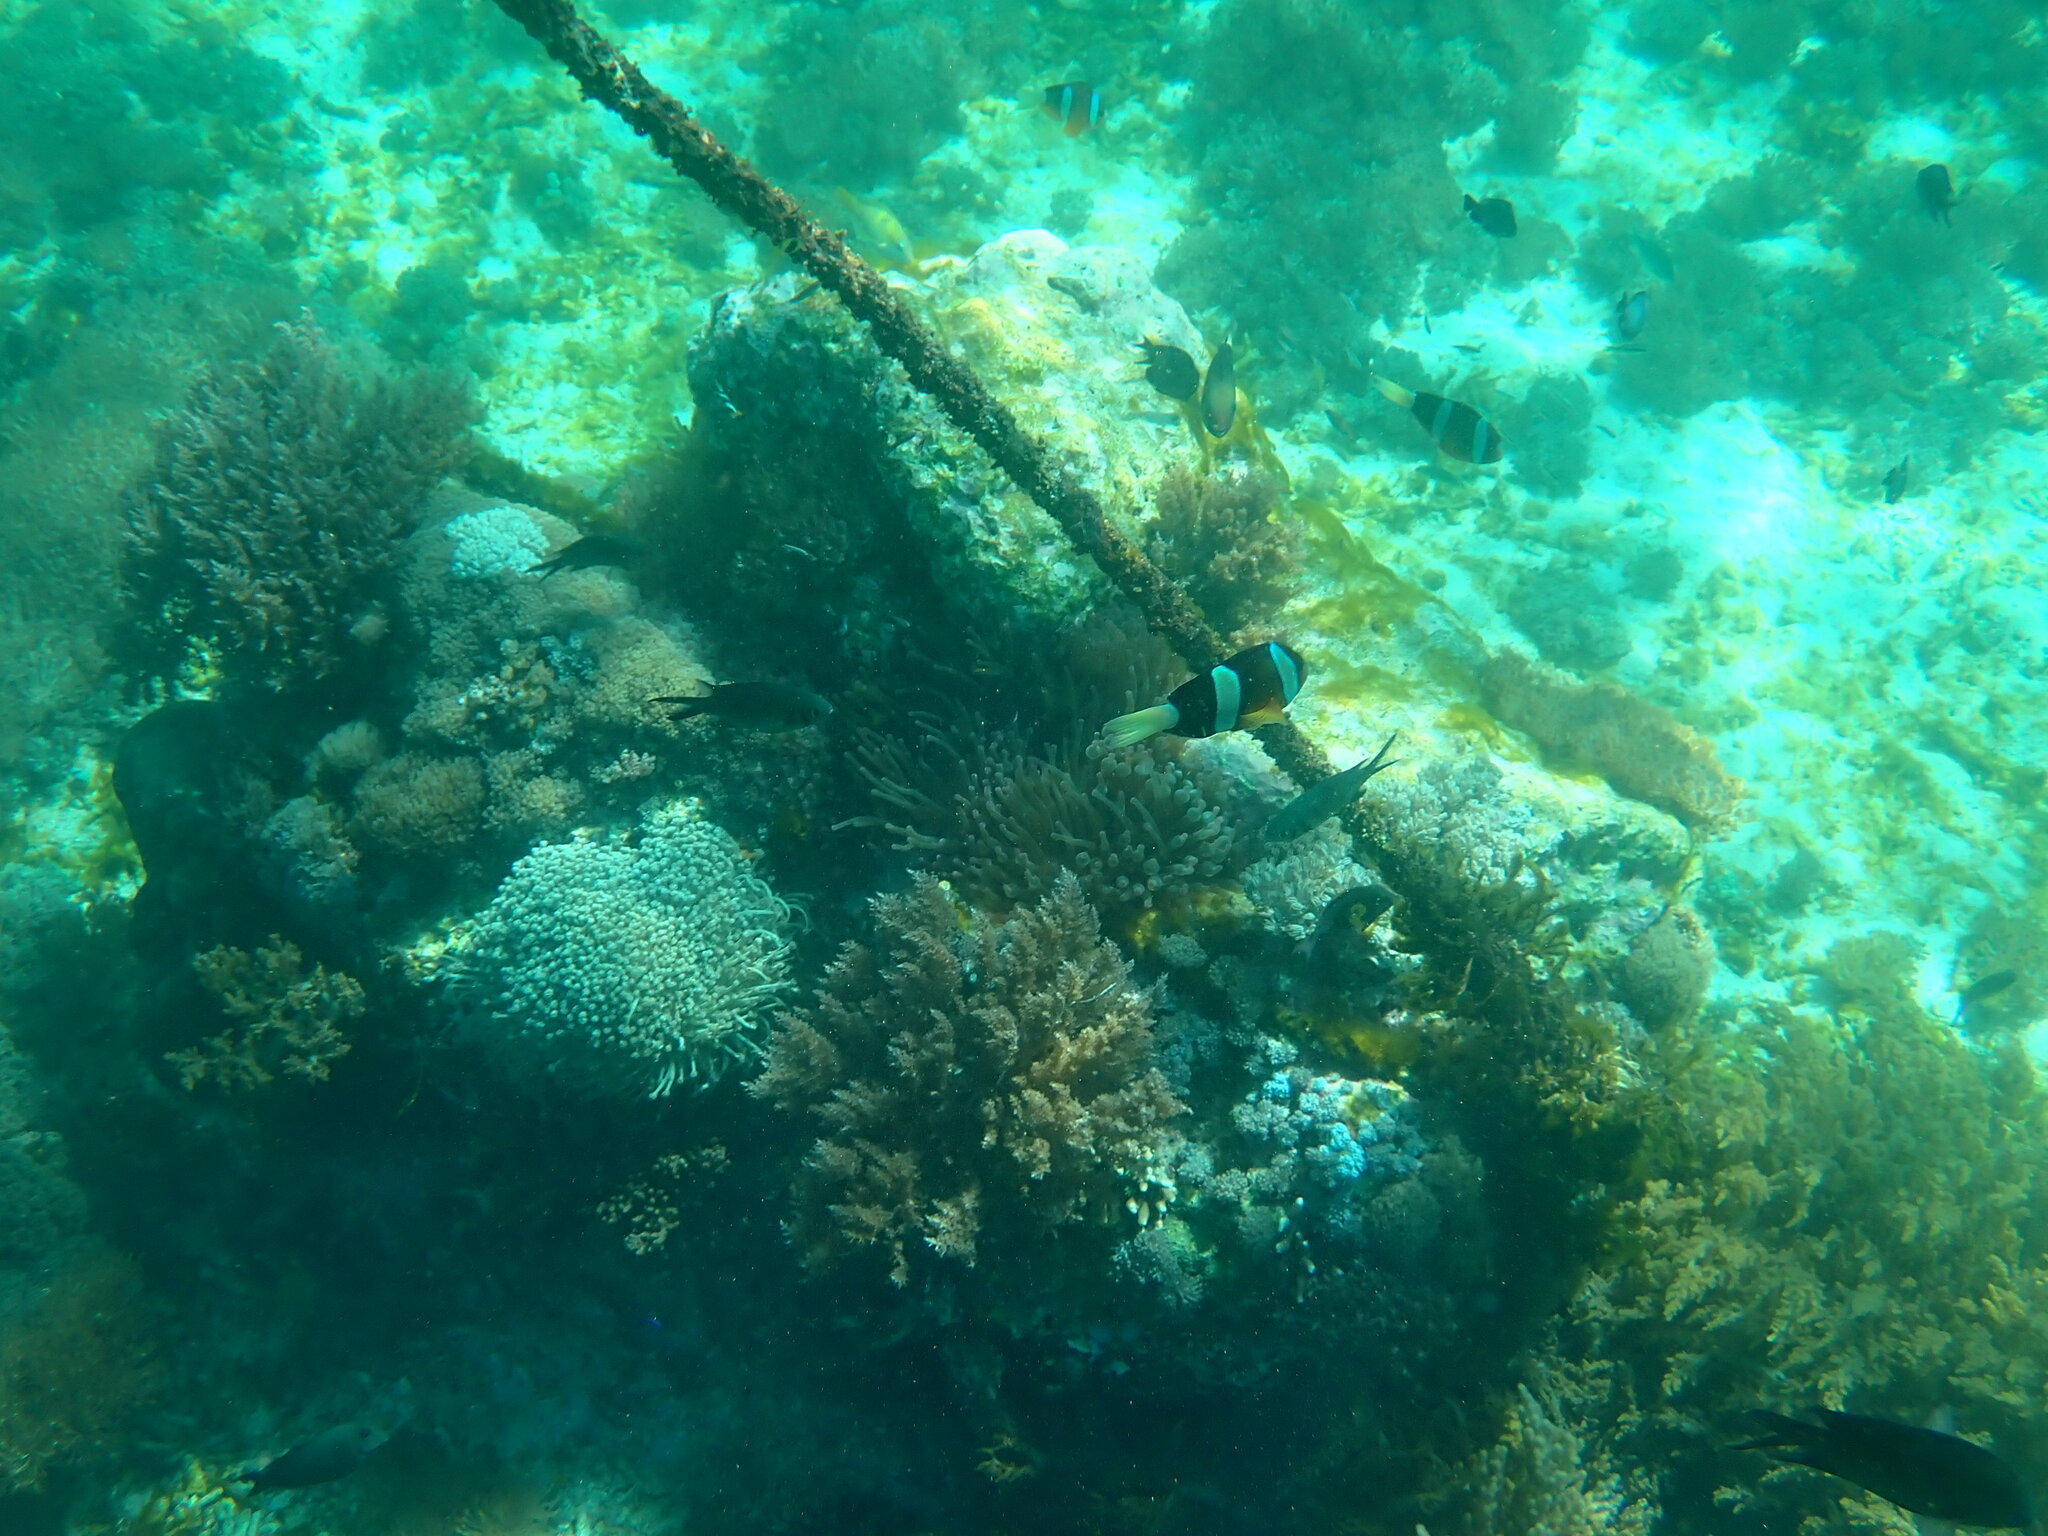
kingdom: Animalia
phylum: Chordata
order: Perciformes
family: Pomacentridae
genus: Amphiprion
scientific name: Amphiprion clarkii
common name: Clark's anemonefish
